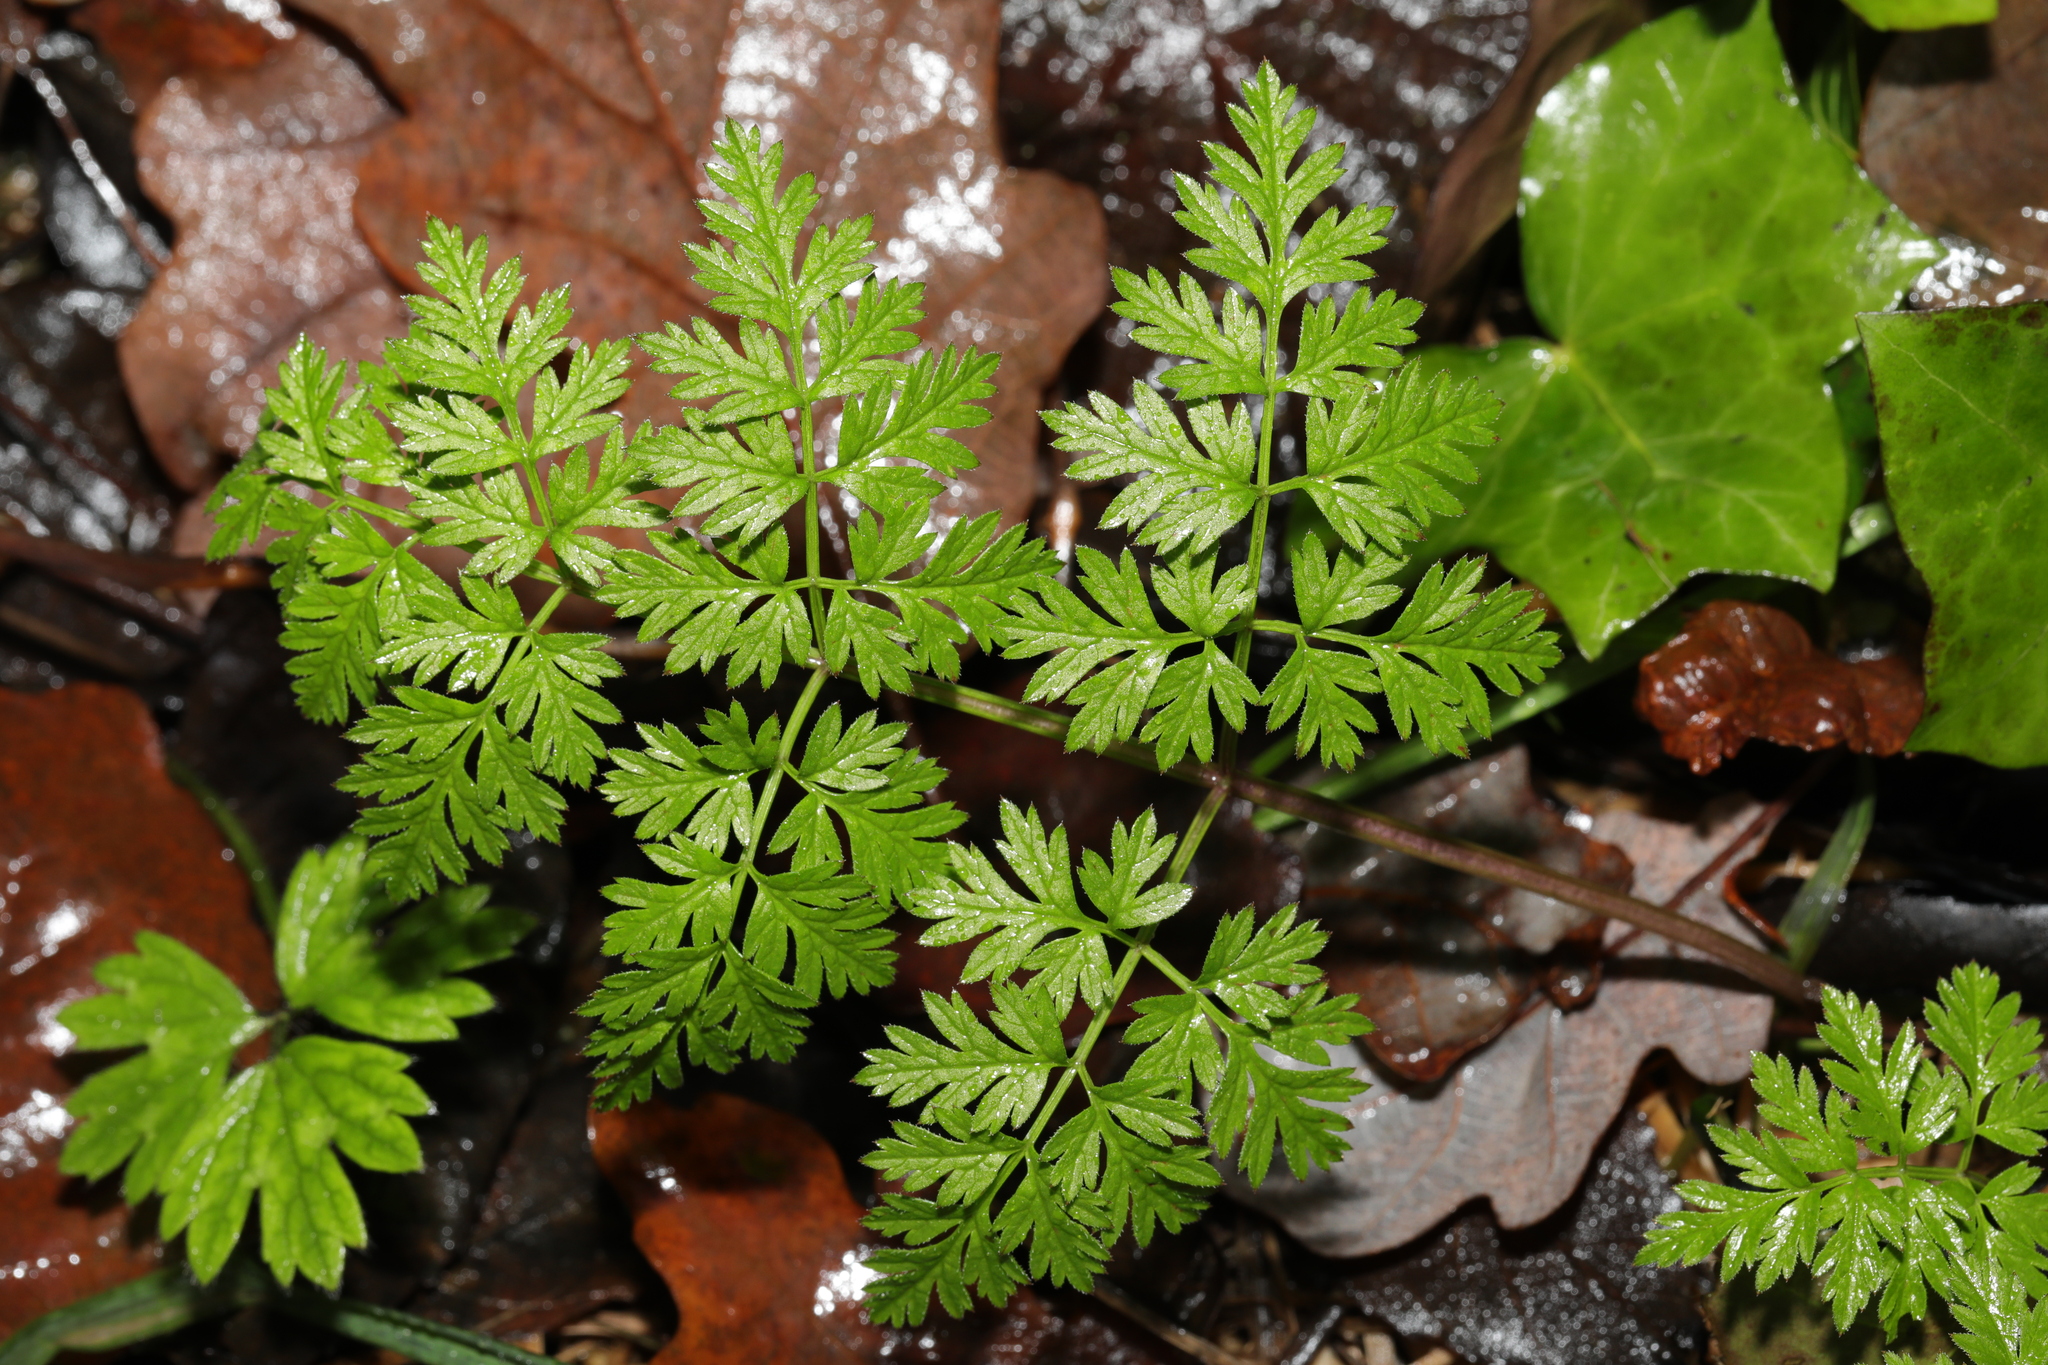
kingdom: Plantae
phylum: Tracheophyta
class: Magnoliopsida
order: Apiales
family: Apiaceae
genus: Anthriscus
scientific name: Anthriscus sylvestris
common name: Cow parsley
